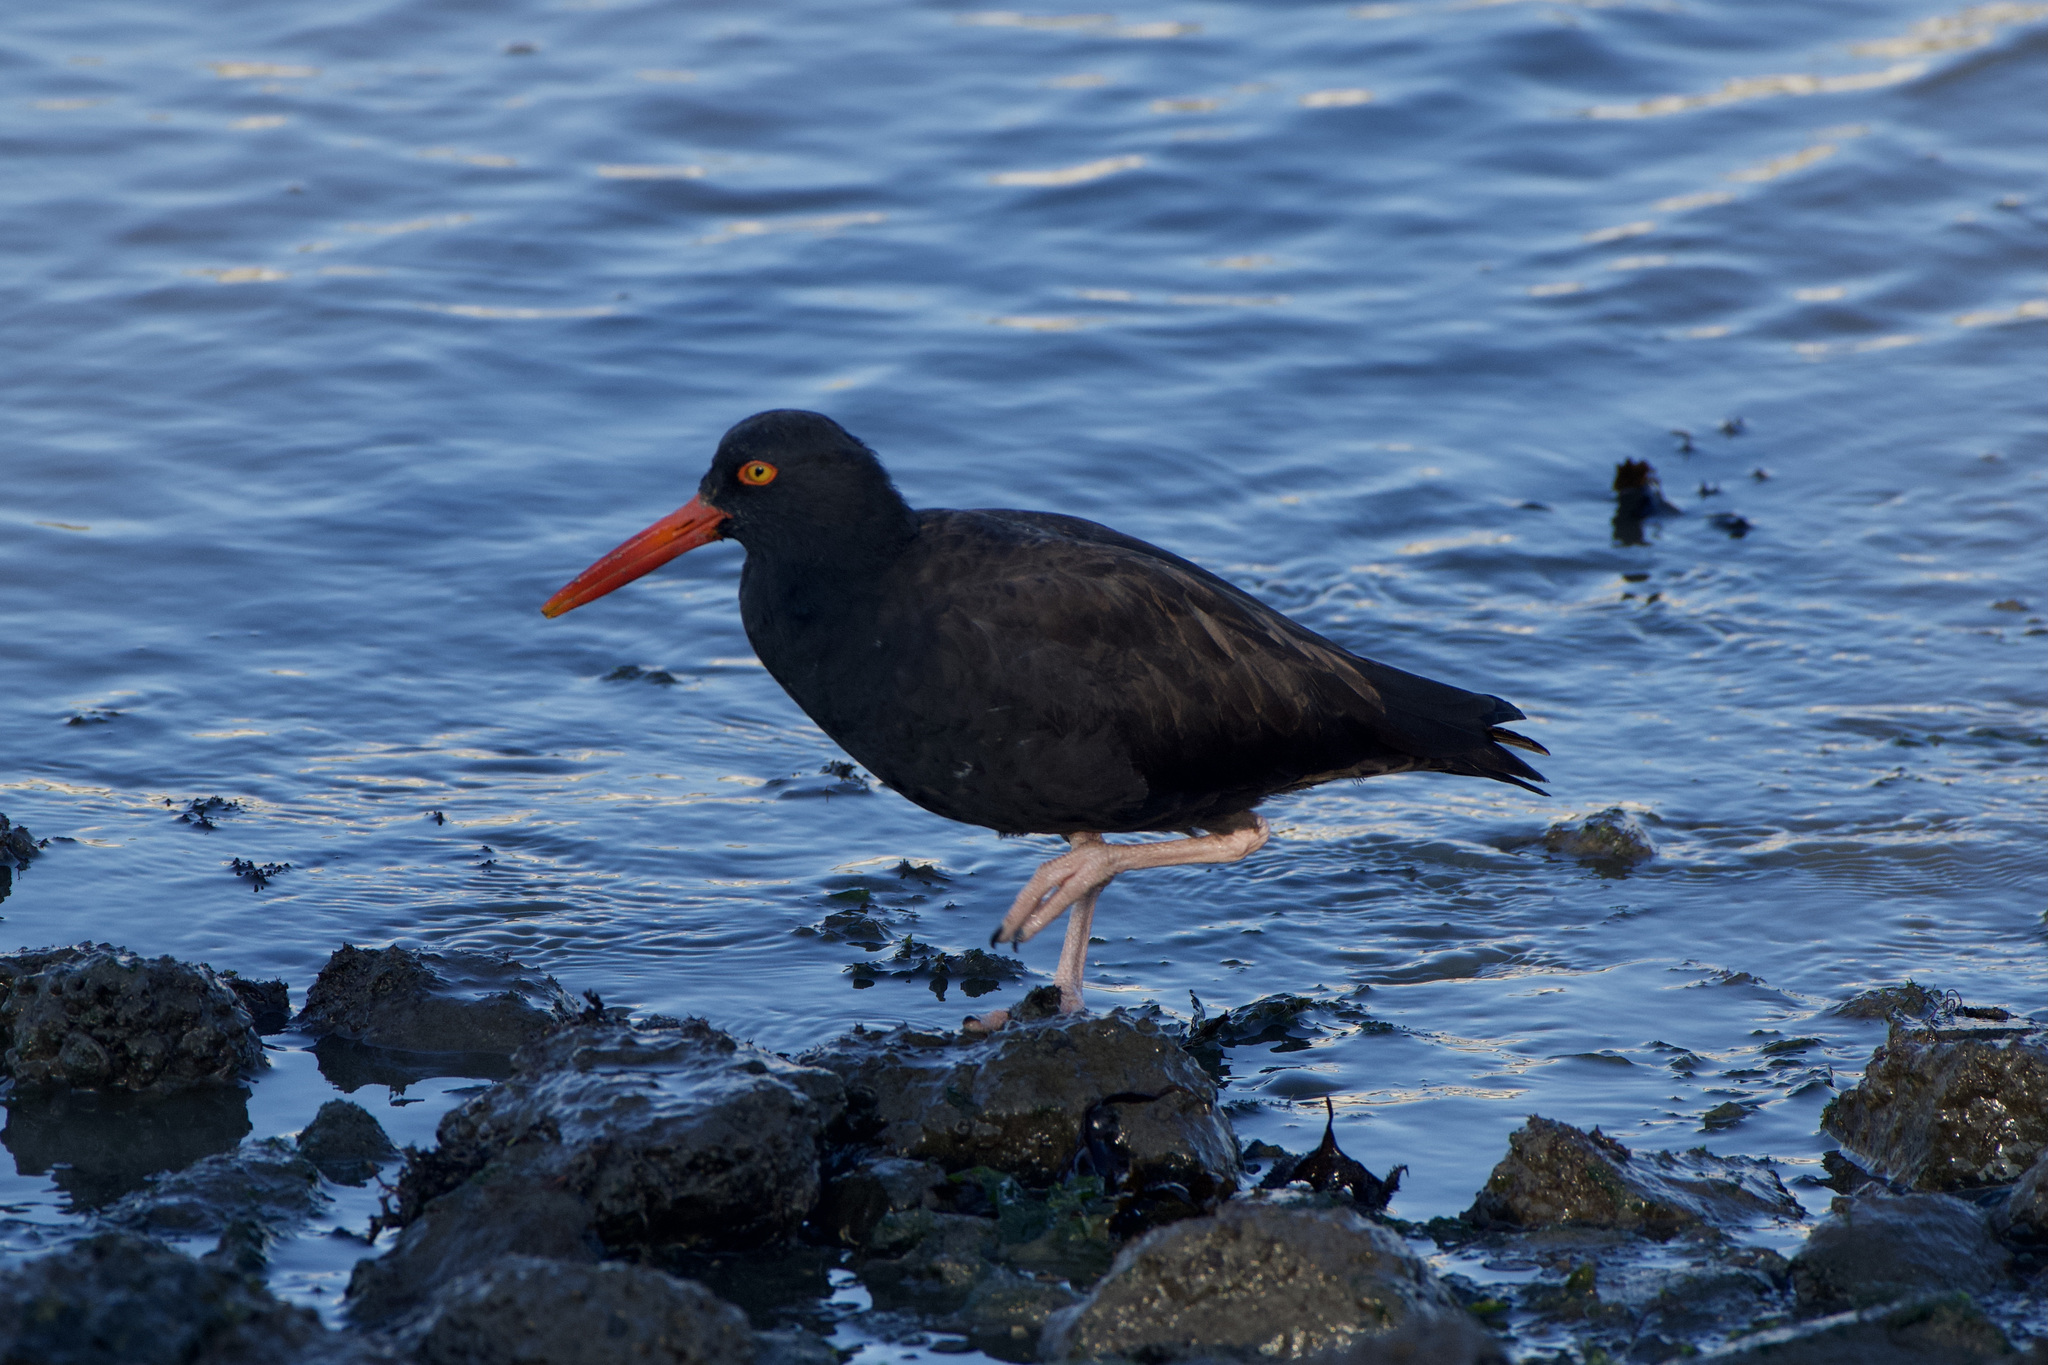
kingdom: Animalia
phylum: Chordata
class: Aves
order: Charadriiformes
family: Haematopodidae
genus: Haematopus
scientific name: Haematopus bachmani
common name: Black oystercatcher
